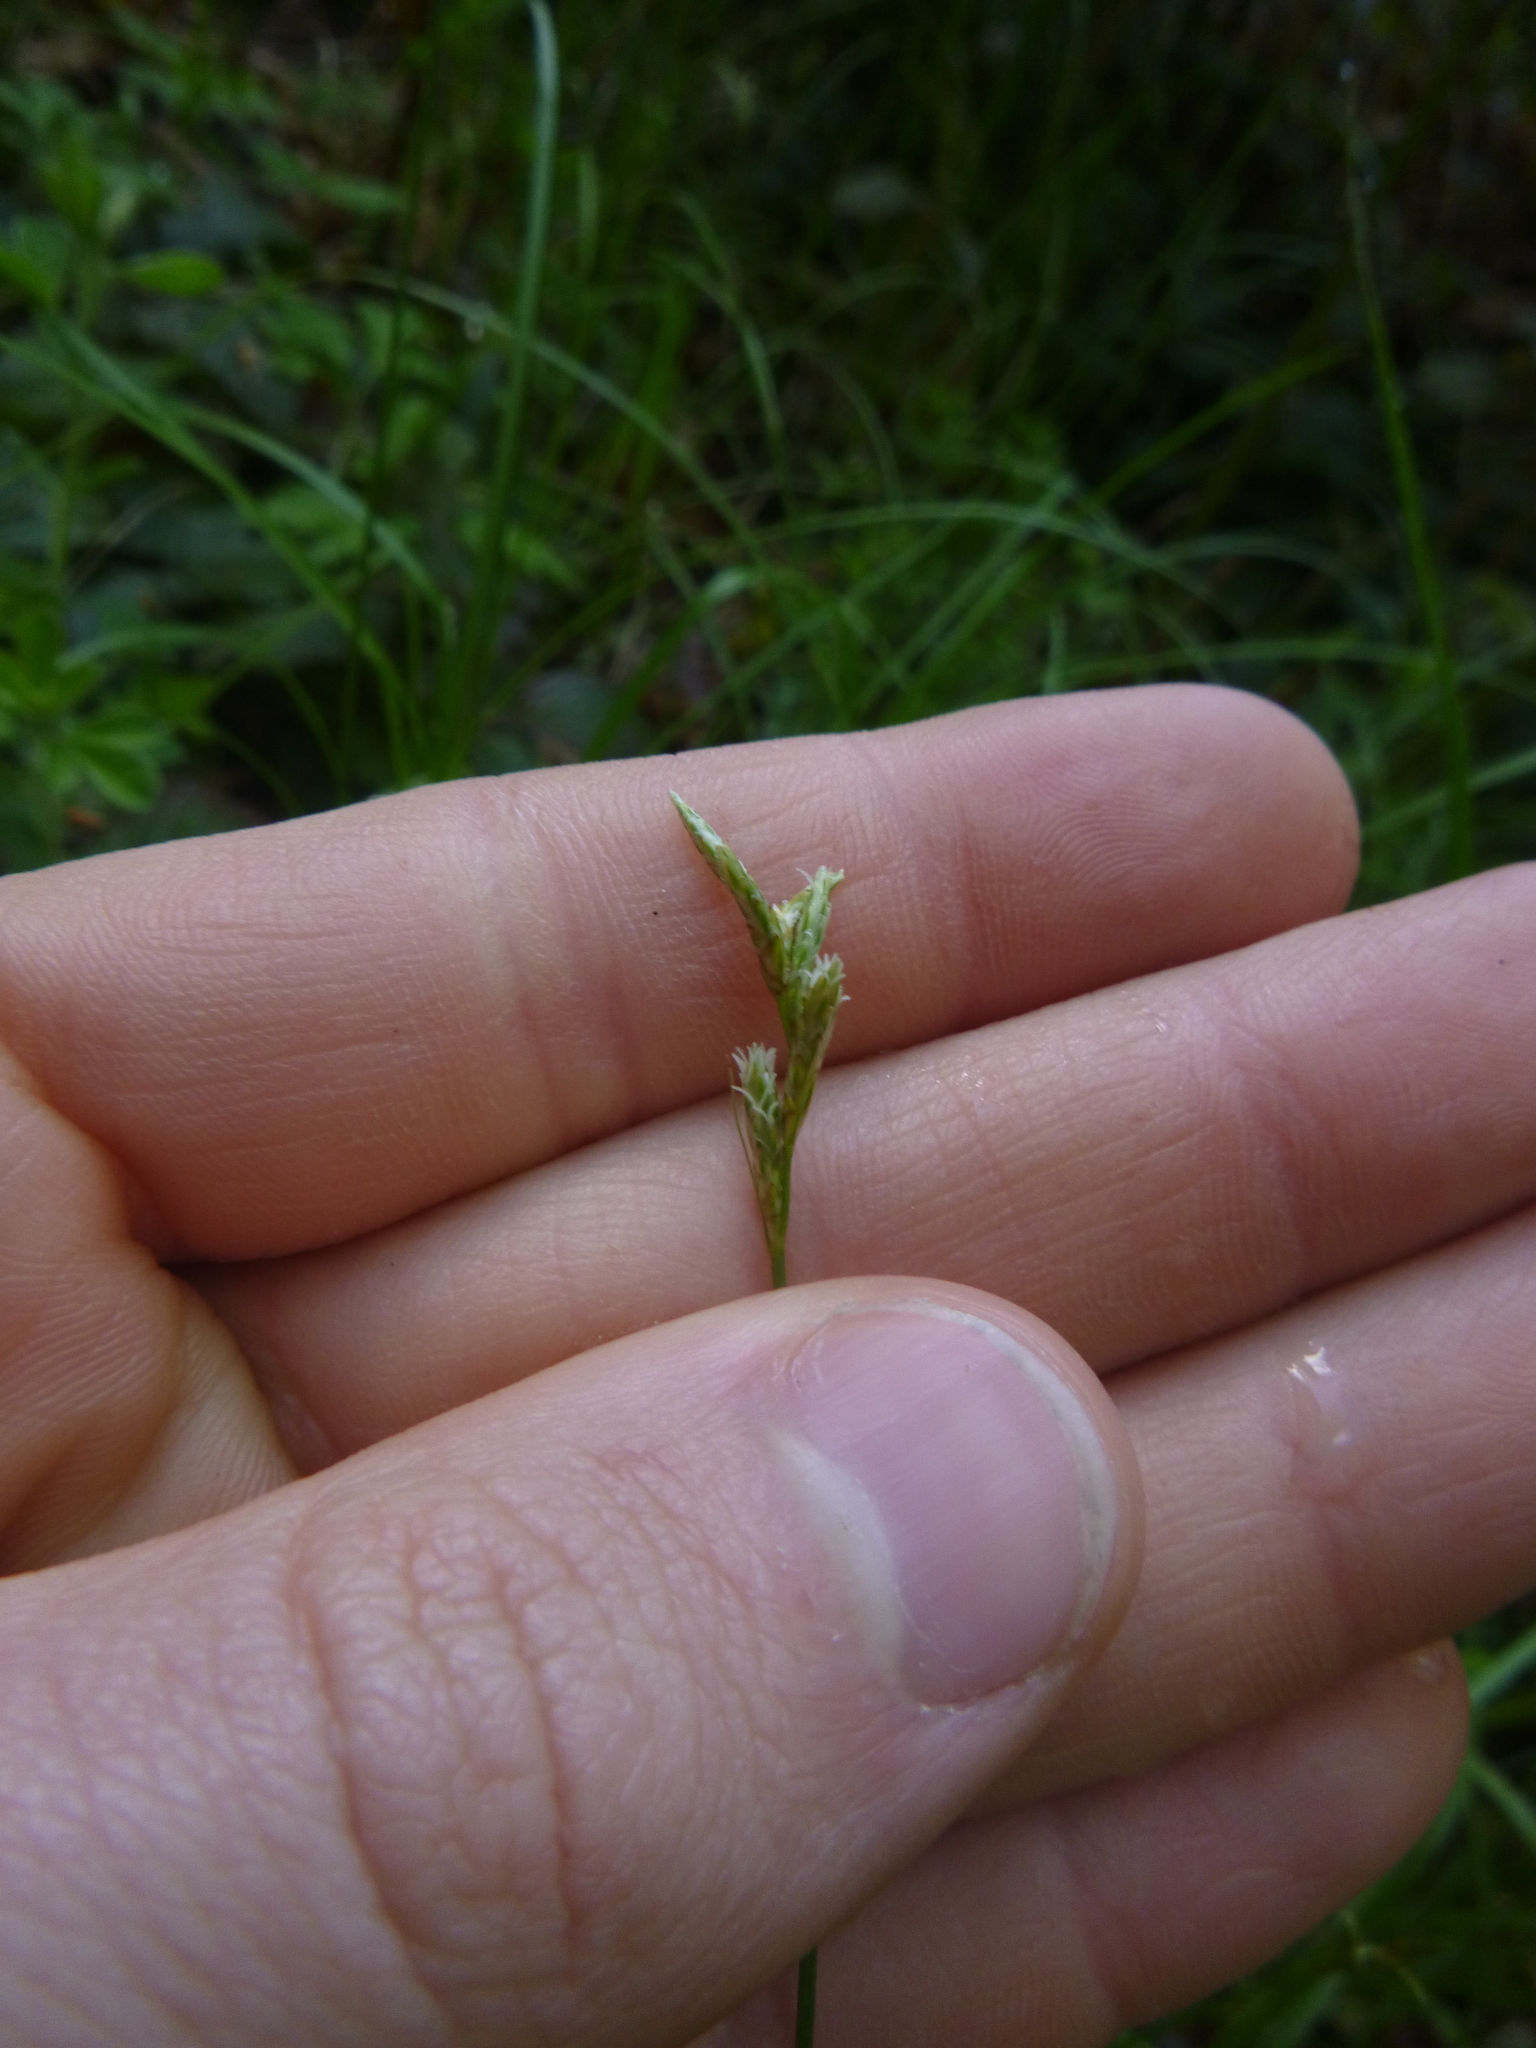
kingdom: Plantae
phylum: Tracheophyta
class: Liliopsida
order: Poales
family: Cyperaceae
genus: Carex
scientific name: Carex brizoides
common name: Quaking-grass sedge
